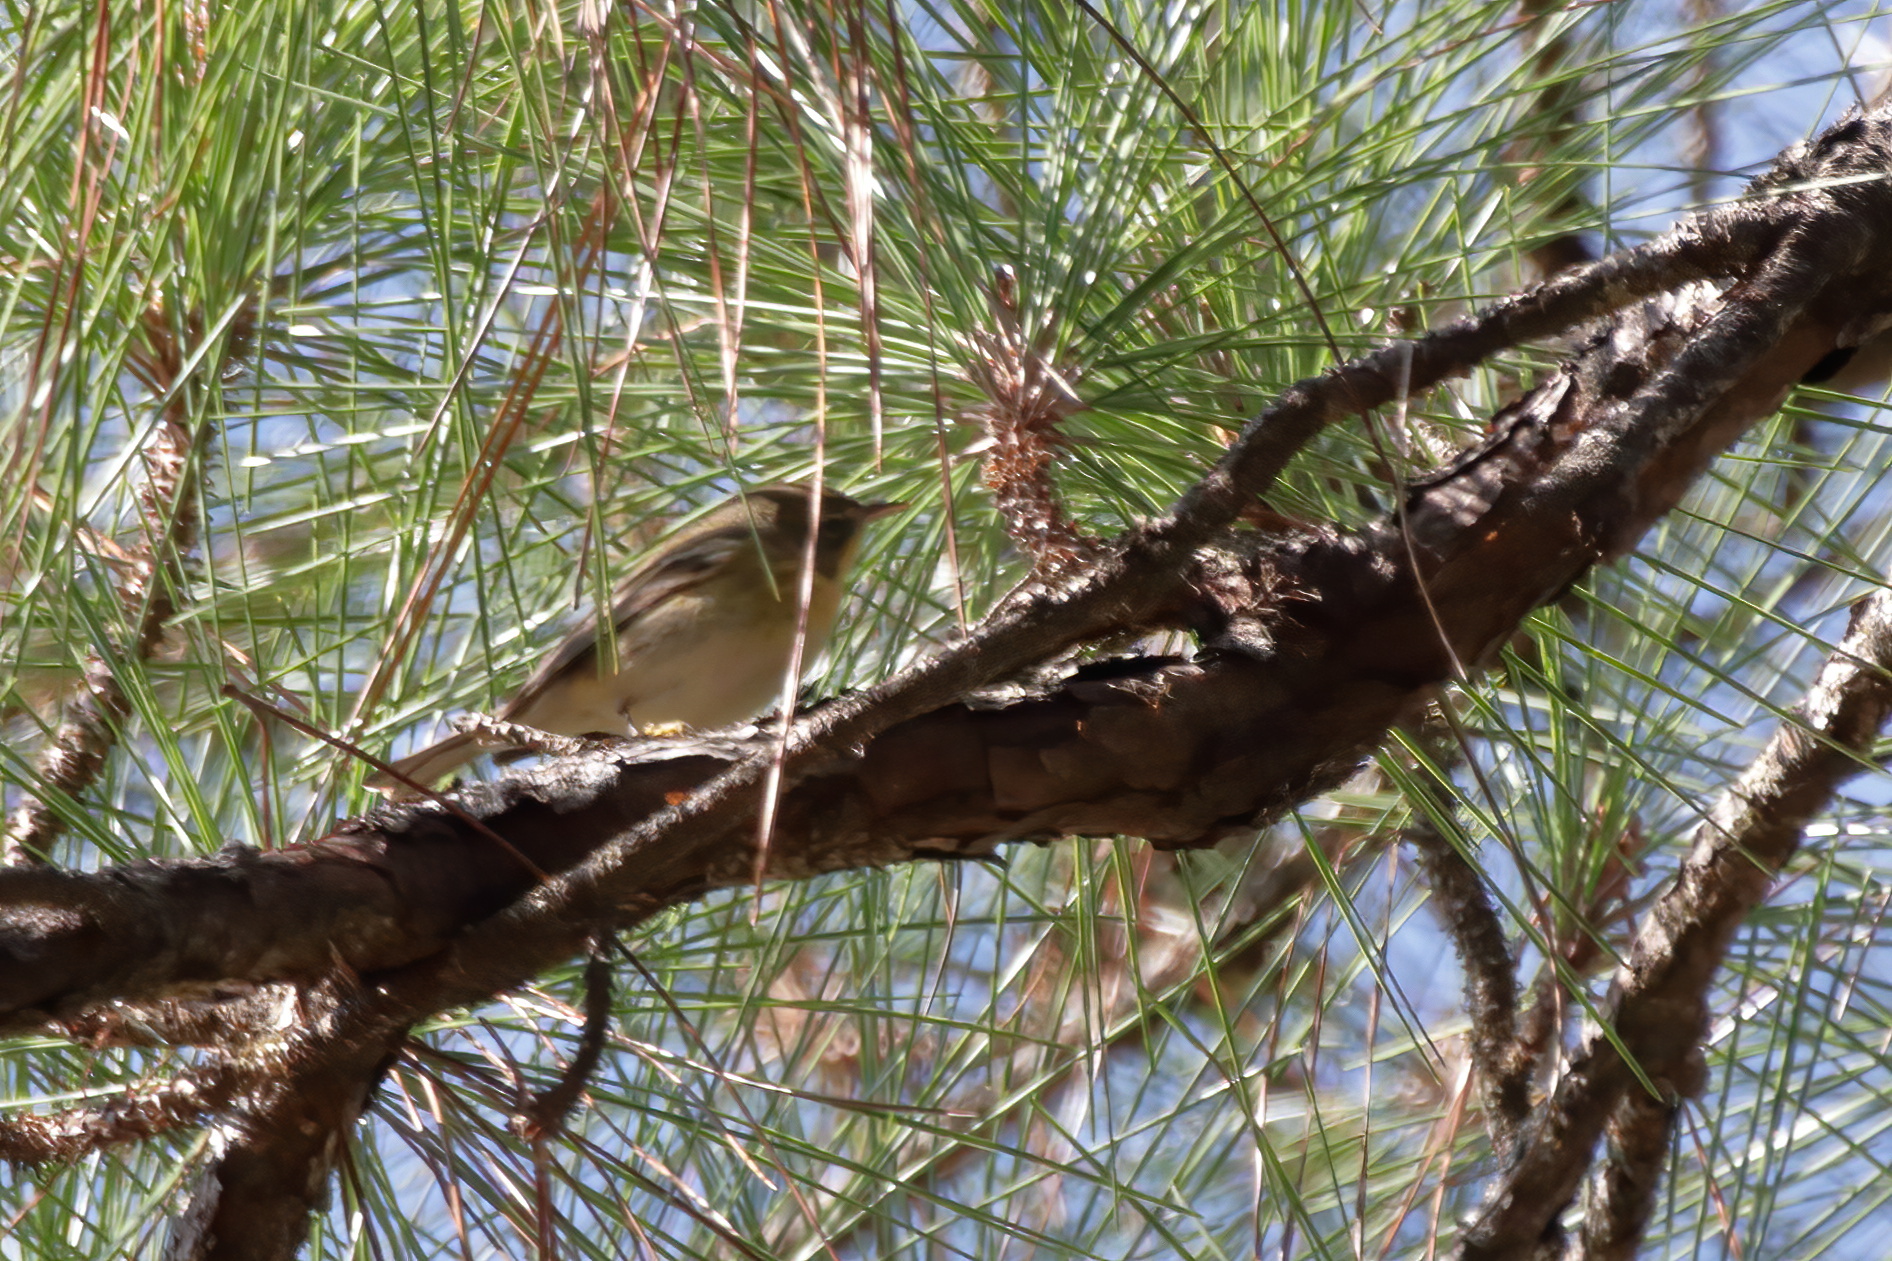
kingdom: Animalia
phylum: Chordata
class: Aves
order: Passeriformes
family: Parulidae
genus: Setophaga
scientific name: Setophaga pinus
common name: Pine warbler
